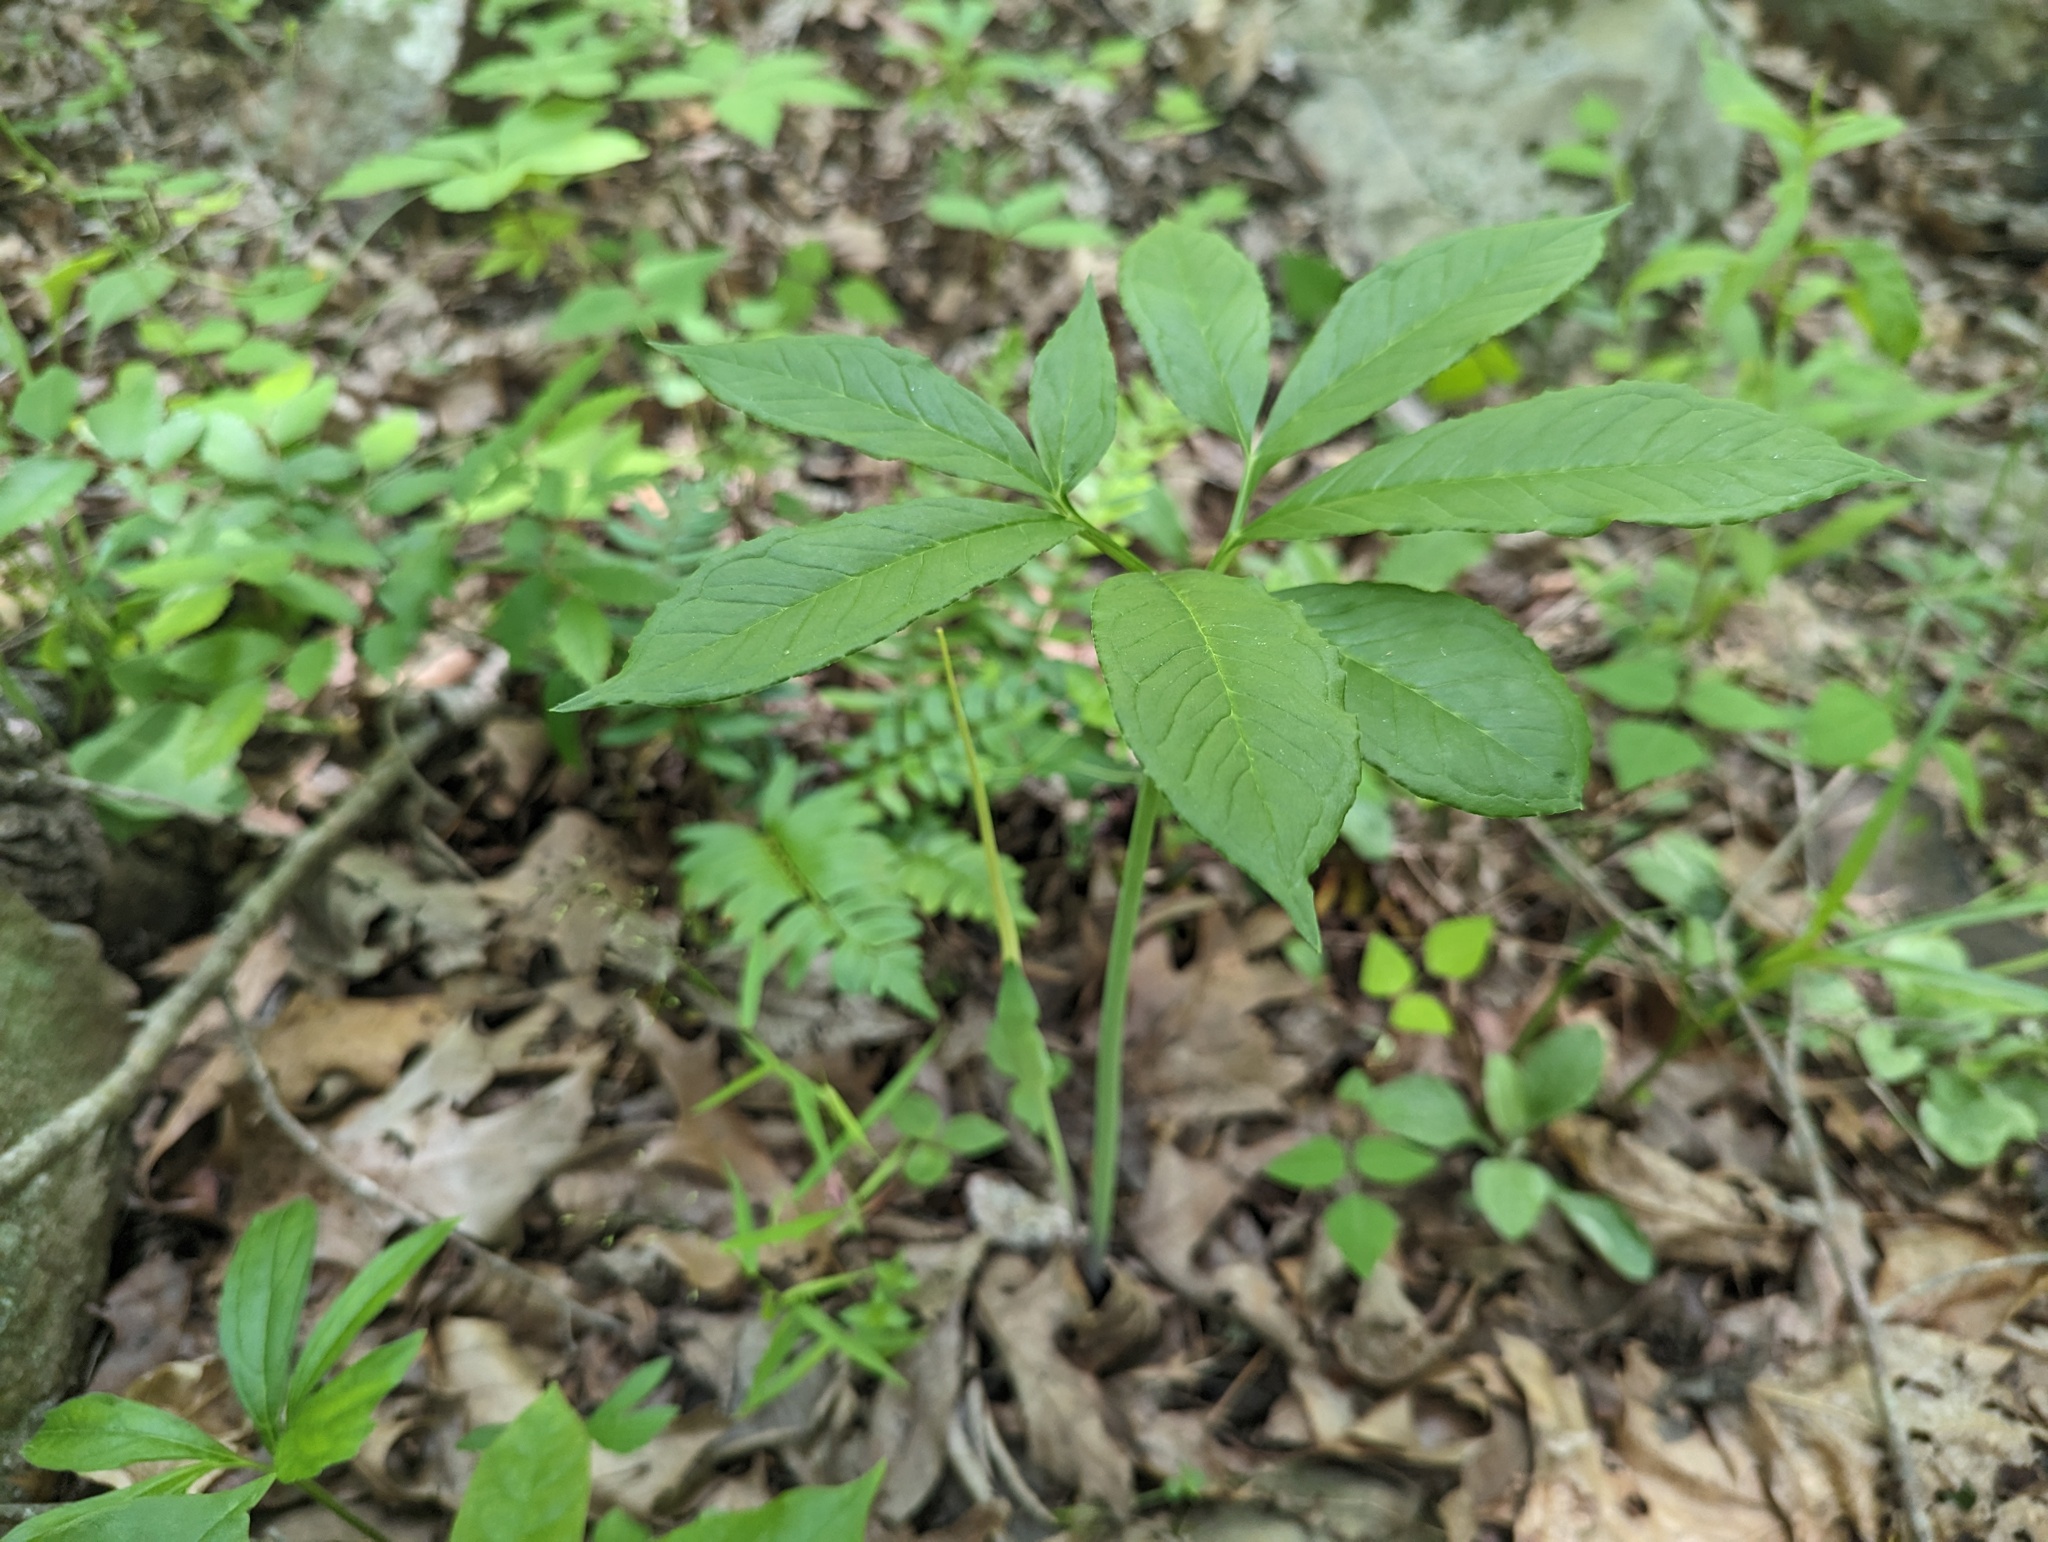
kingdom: Plantae
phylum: Tracheophyta
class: Liliopsida
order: Alismatales
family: Araceae
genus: Arisaema
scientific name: Arisaema dracontium
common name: Dragon-arum
